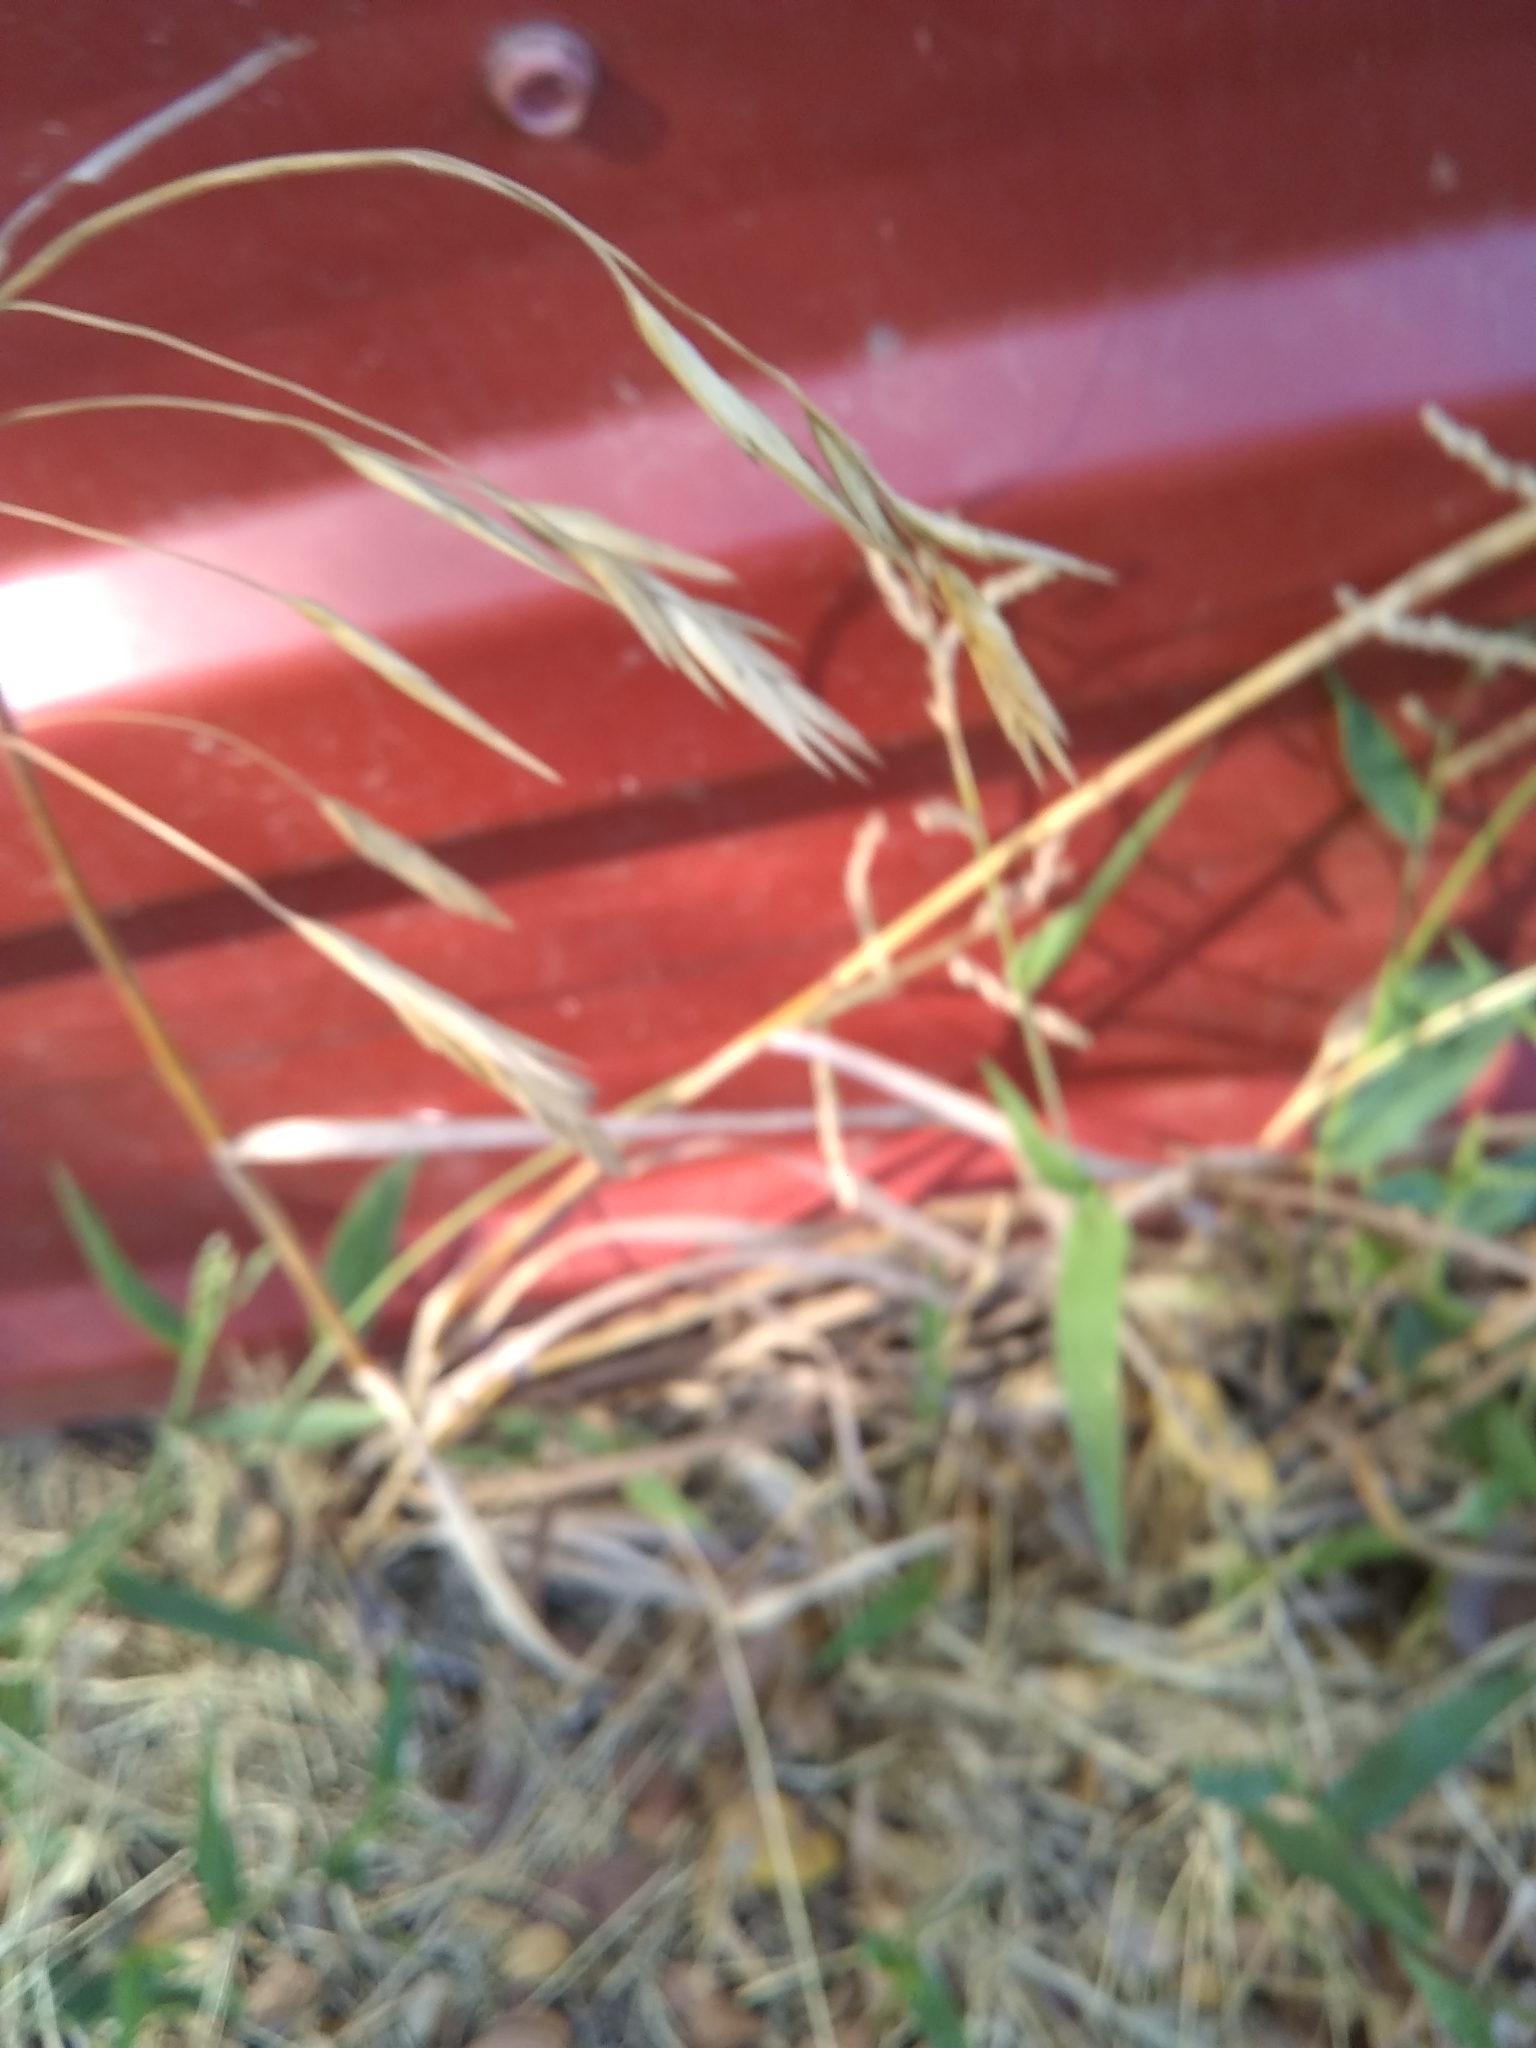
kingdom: Plantae
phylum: Tracheophyta
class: Liliopsida
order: Poales
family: Poaceae
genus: Bromus
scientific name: Bromus catharticus
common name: Rescuegrass
